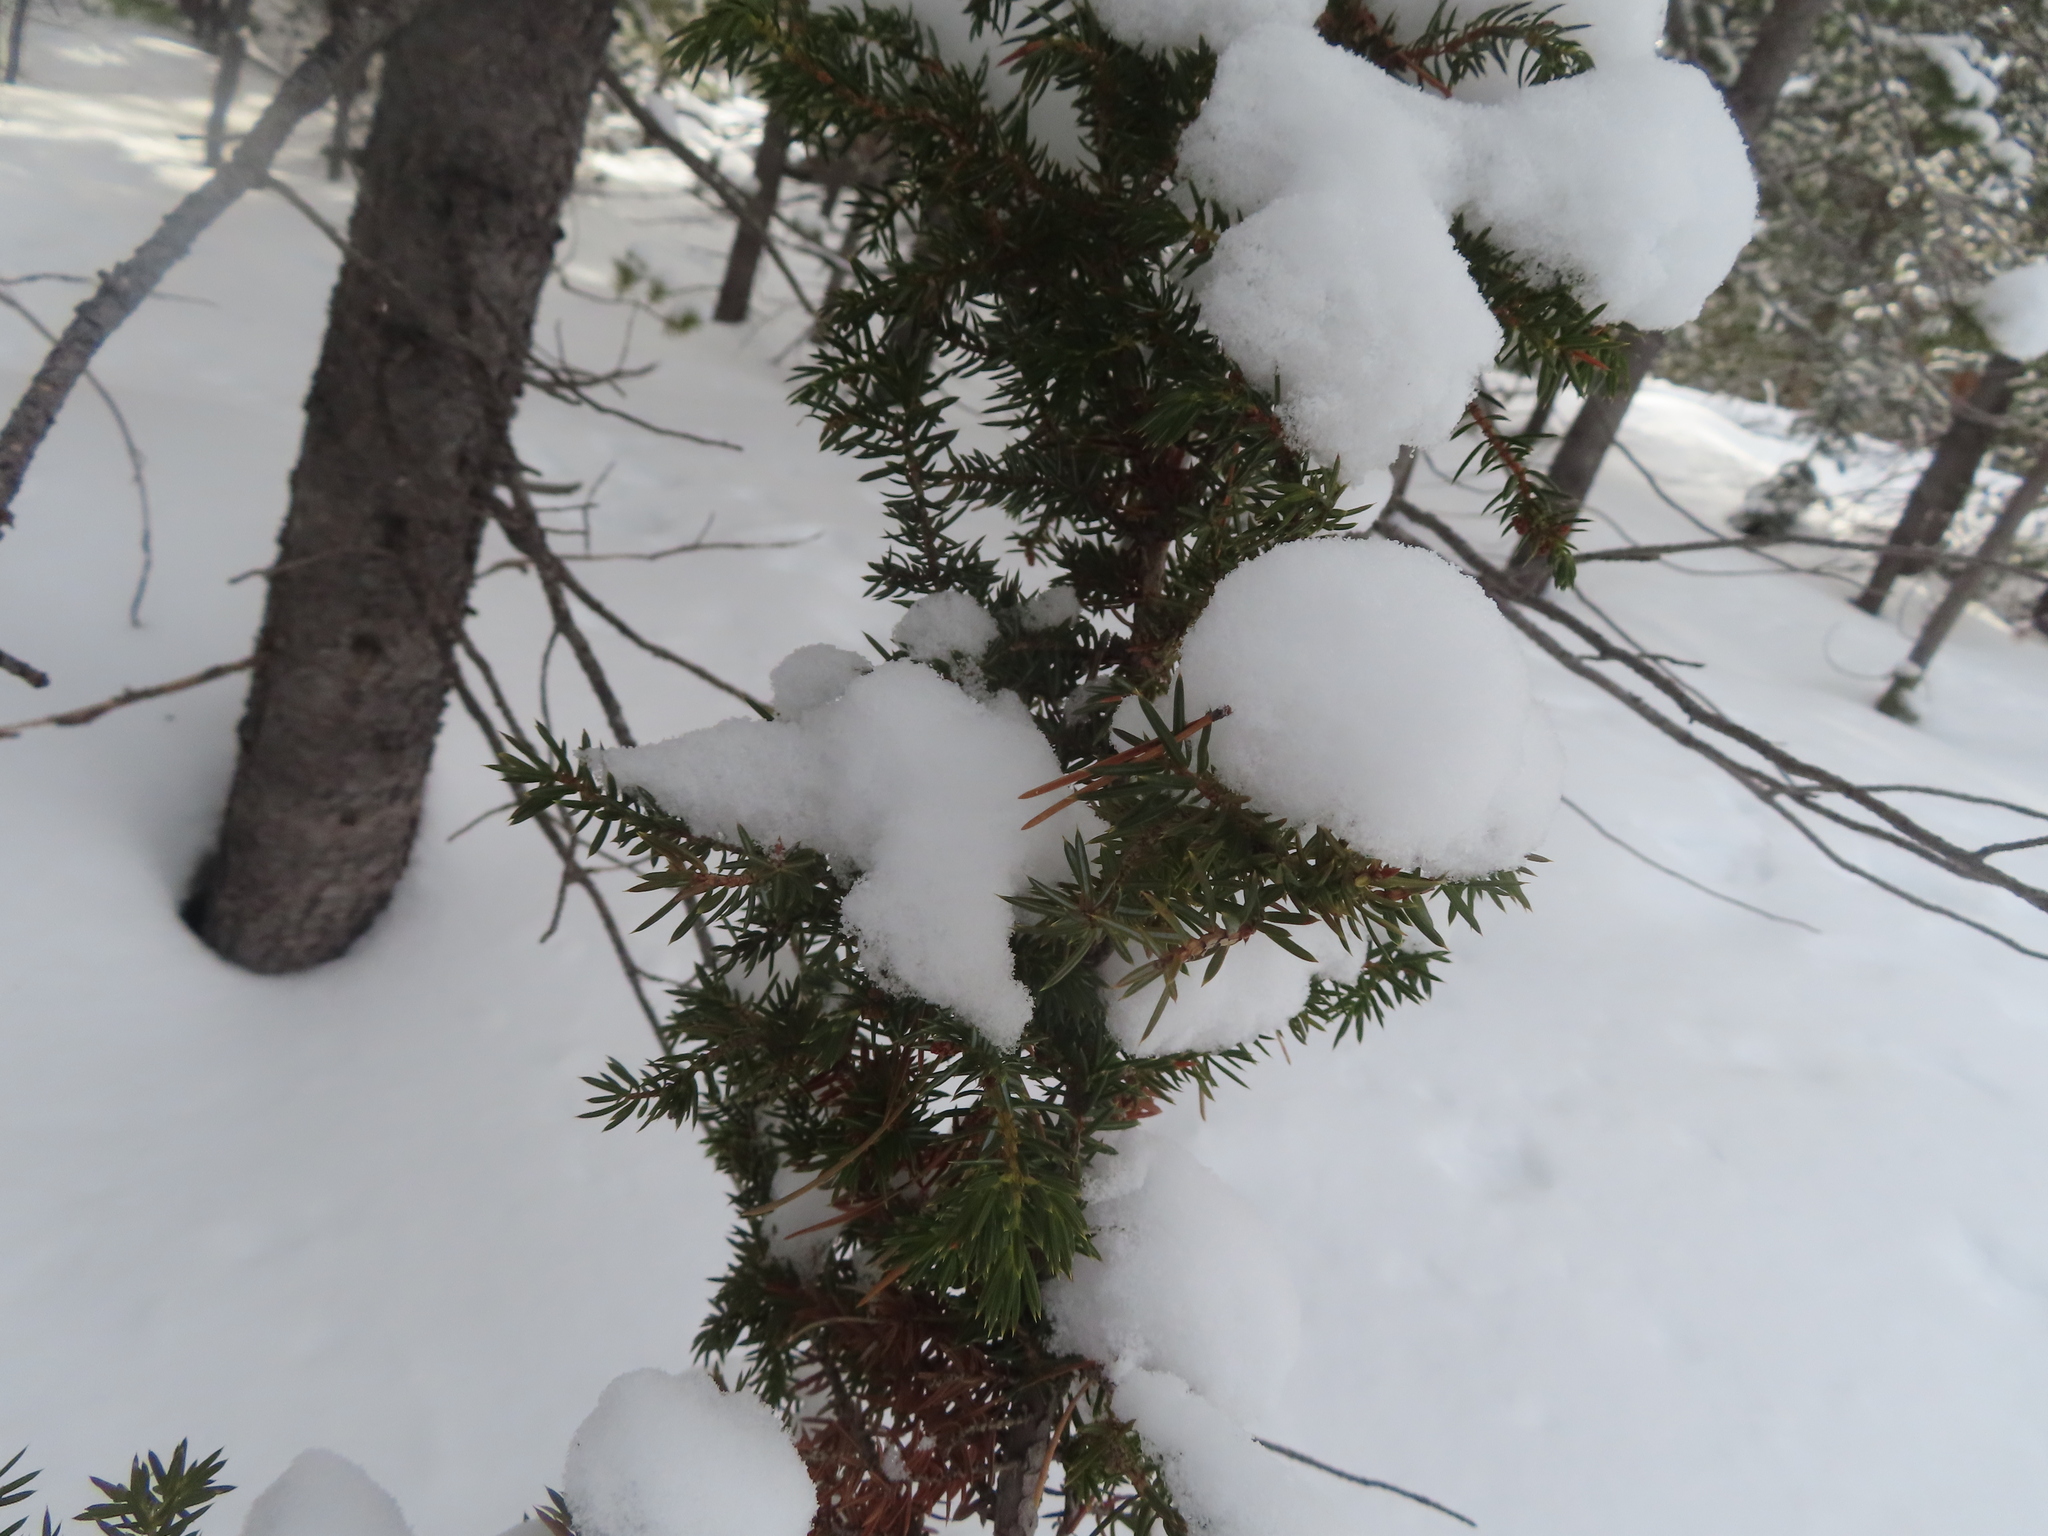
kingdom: Plantae
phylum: Tracheophyta
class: Pinopsida
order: Pinales
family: Cupressaceae
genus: Juniperus
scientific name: Juniperus communis
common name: Common juniper
